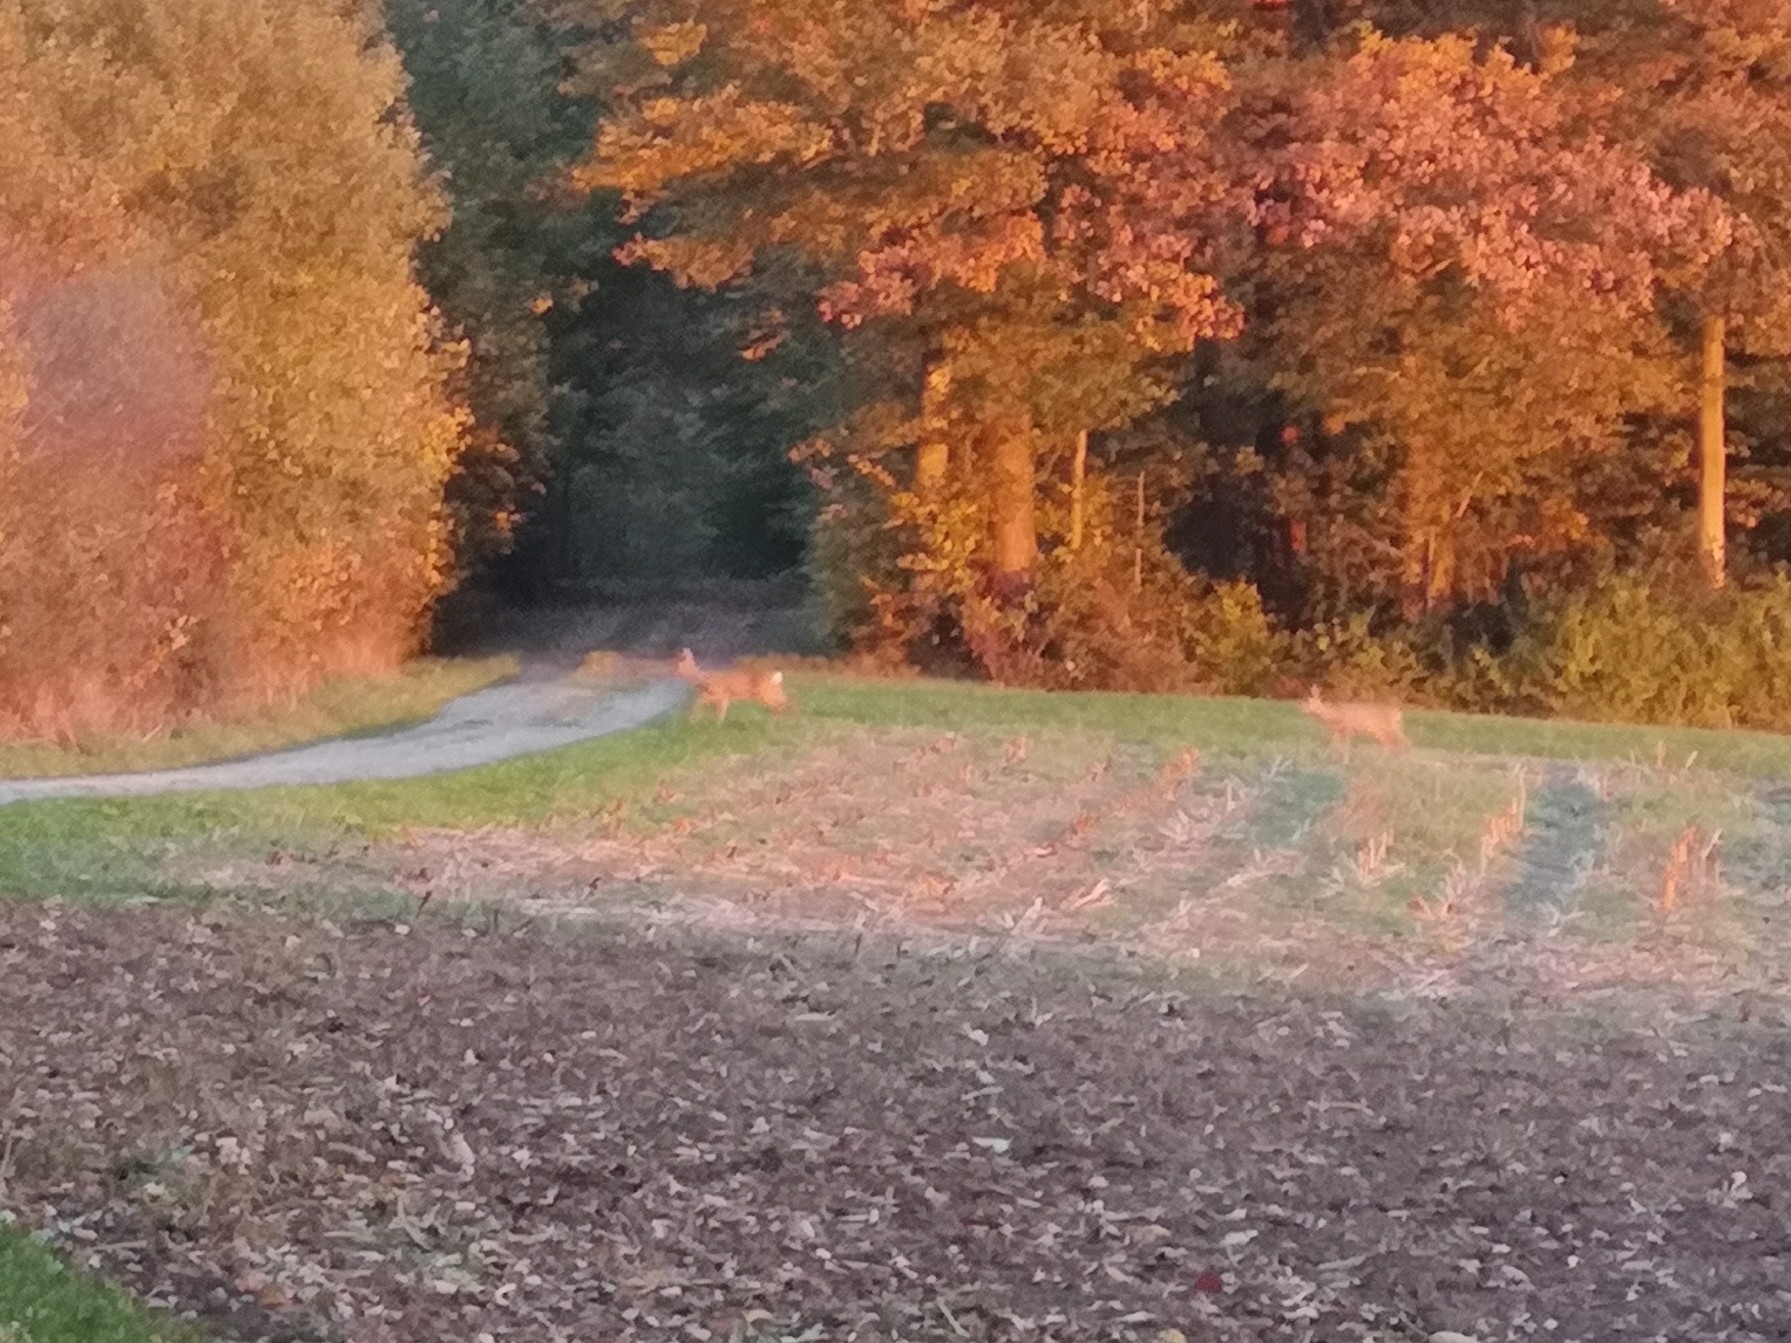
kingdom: Animalia
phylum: Chordata
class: Mammalia
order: Artiodactyla
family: Cervidae
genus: Capreolus
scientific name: Capreolus capreolus
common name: Western roe deer
